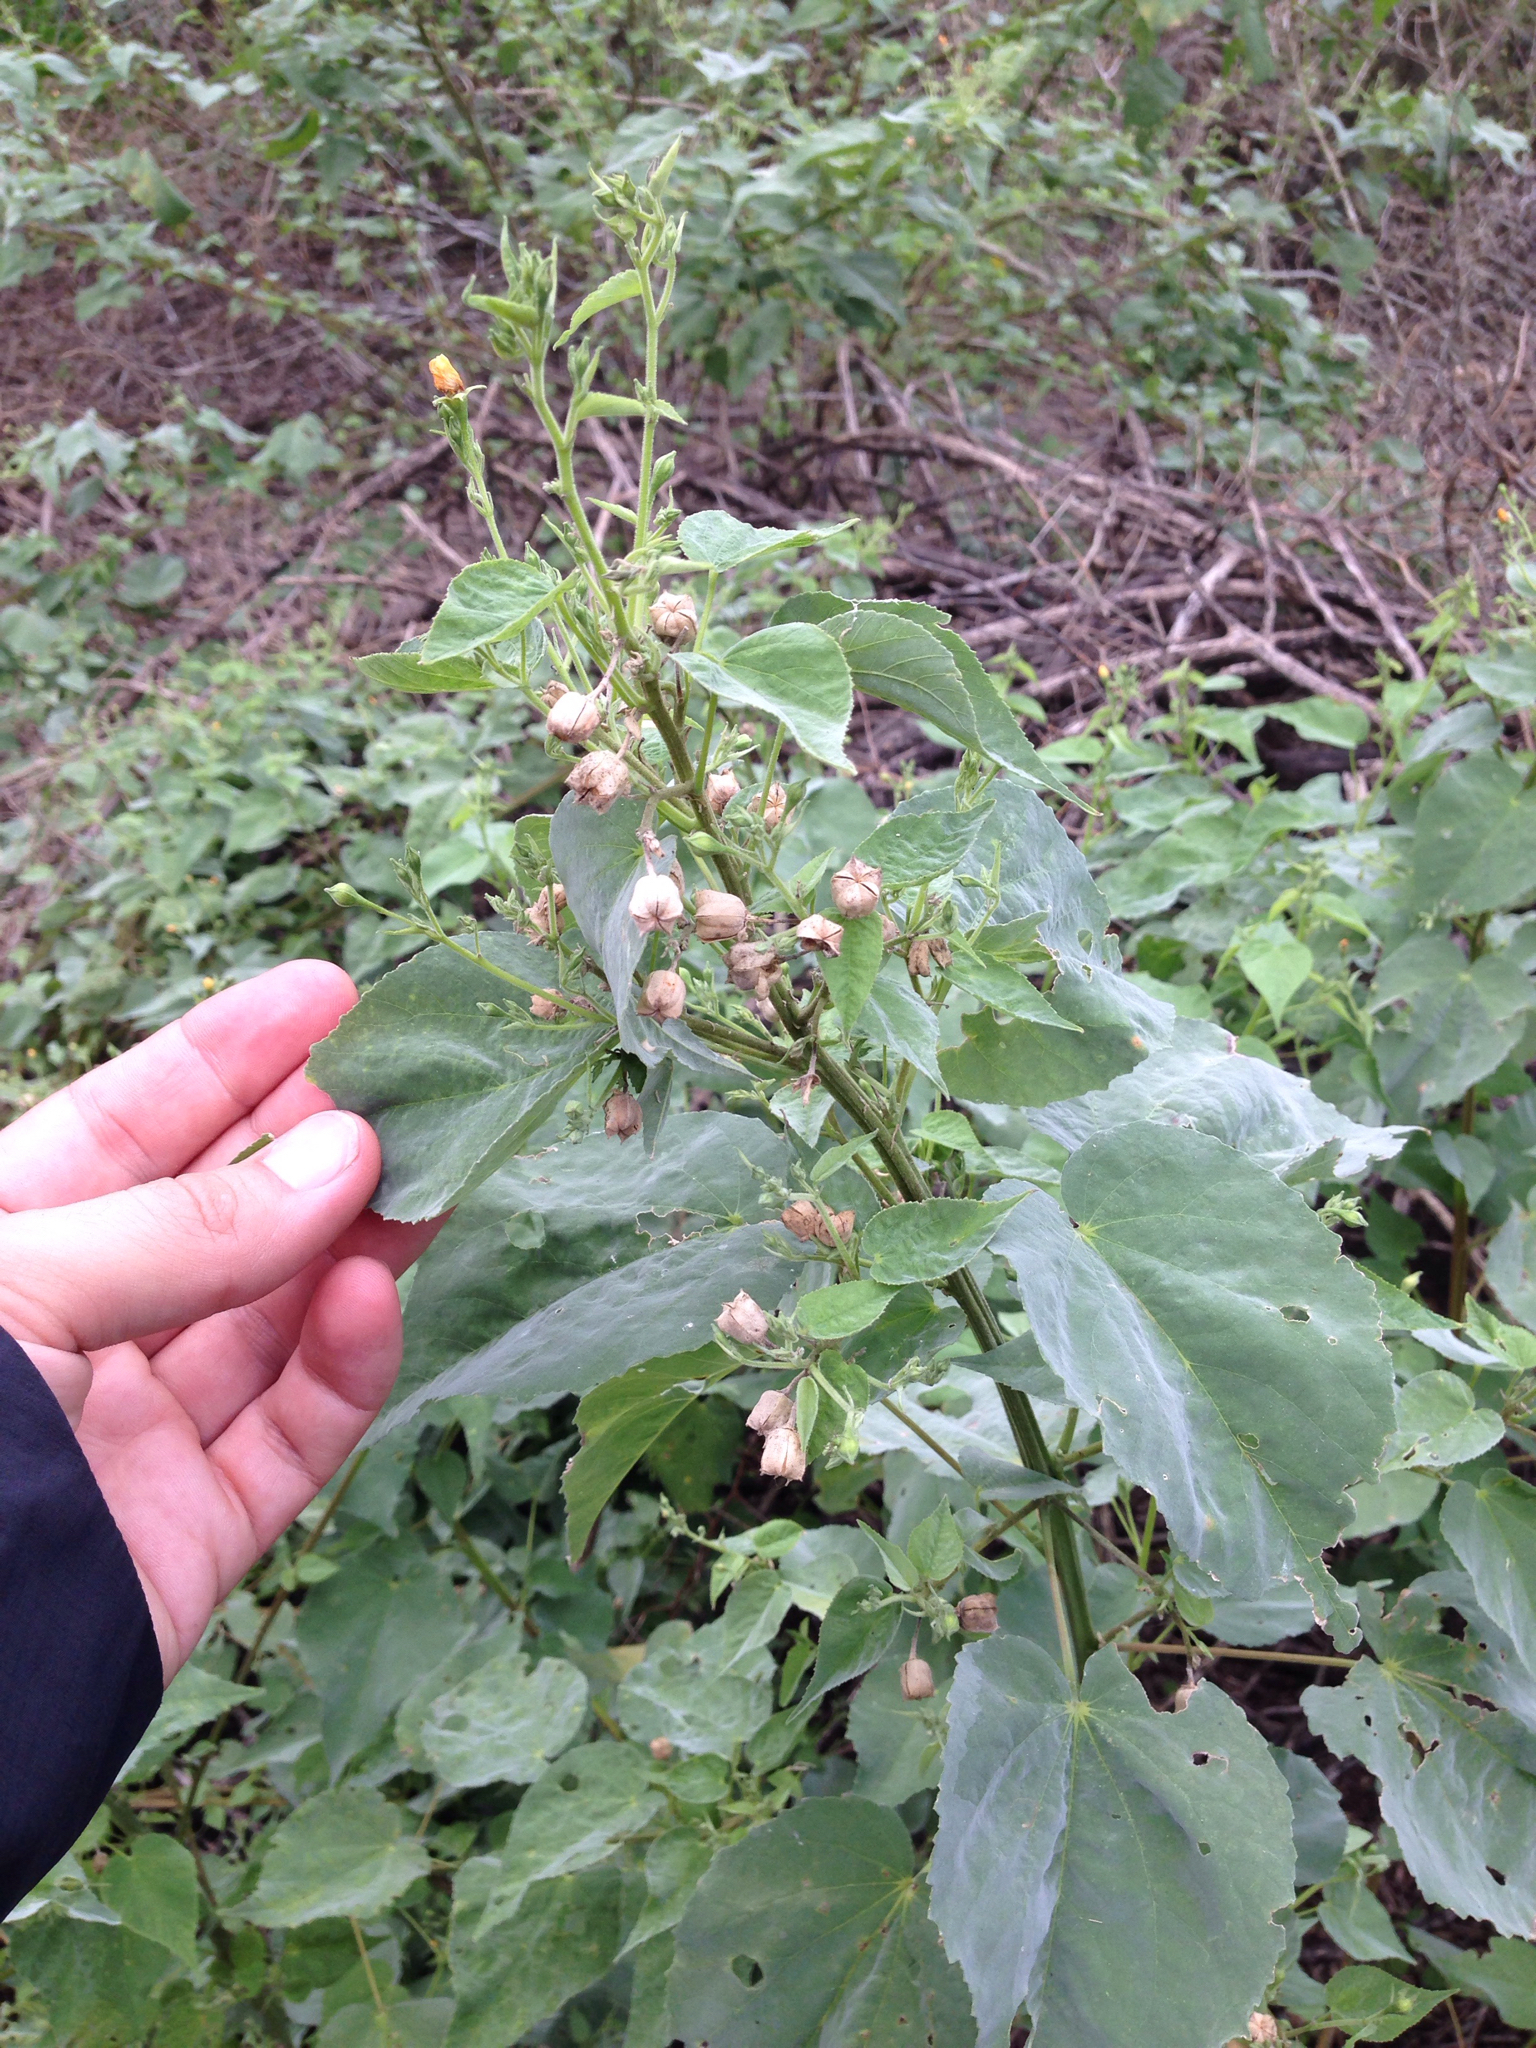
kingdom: Plantae
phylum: Tracheophyta
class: Magnoliopsida
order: Malvales
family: Malvaceae
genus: Abutilon
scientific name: Abutilon trisulcatum
